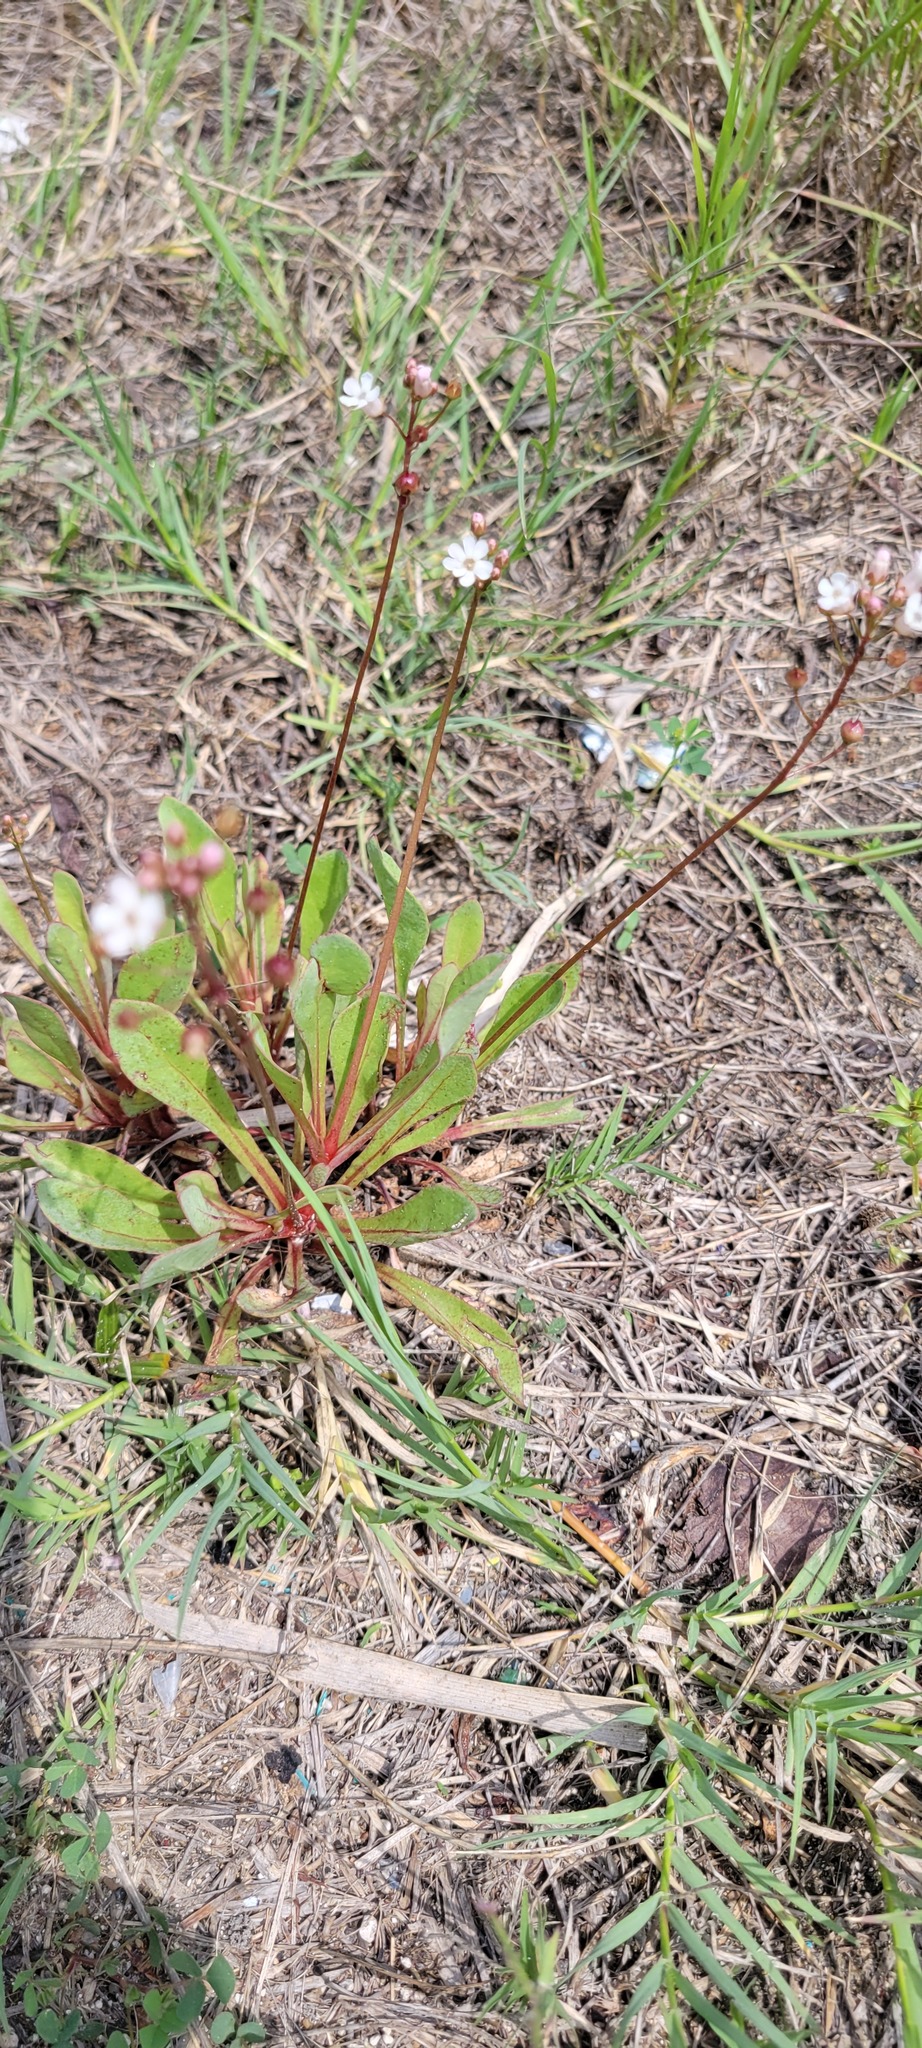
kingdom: Plantae
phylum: Tracheophyta
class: Magnoliopsida
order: Ericales
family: Primulaceae
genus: Samolus
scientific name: Samolus ebracteatus
